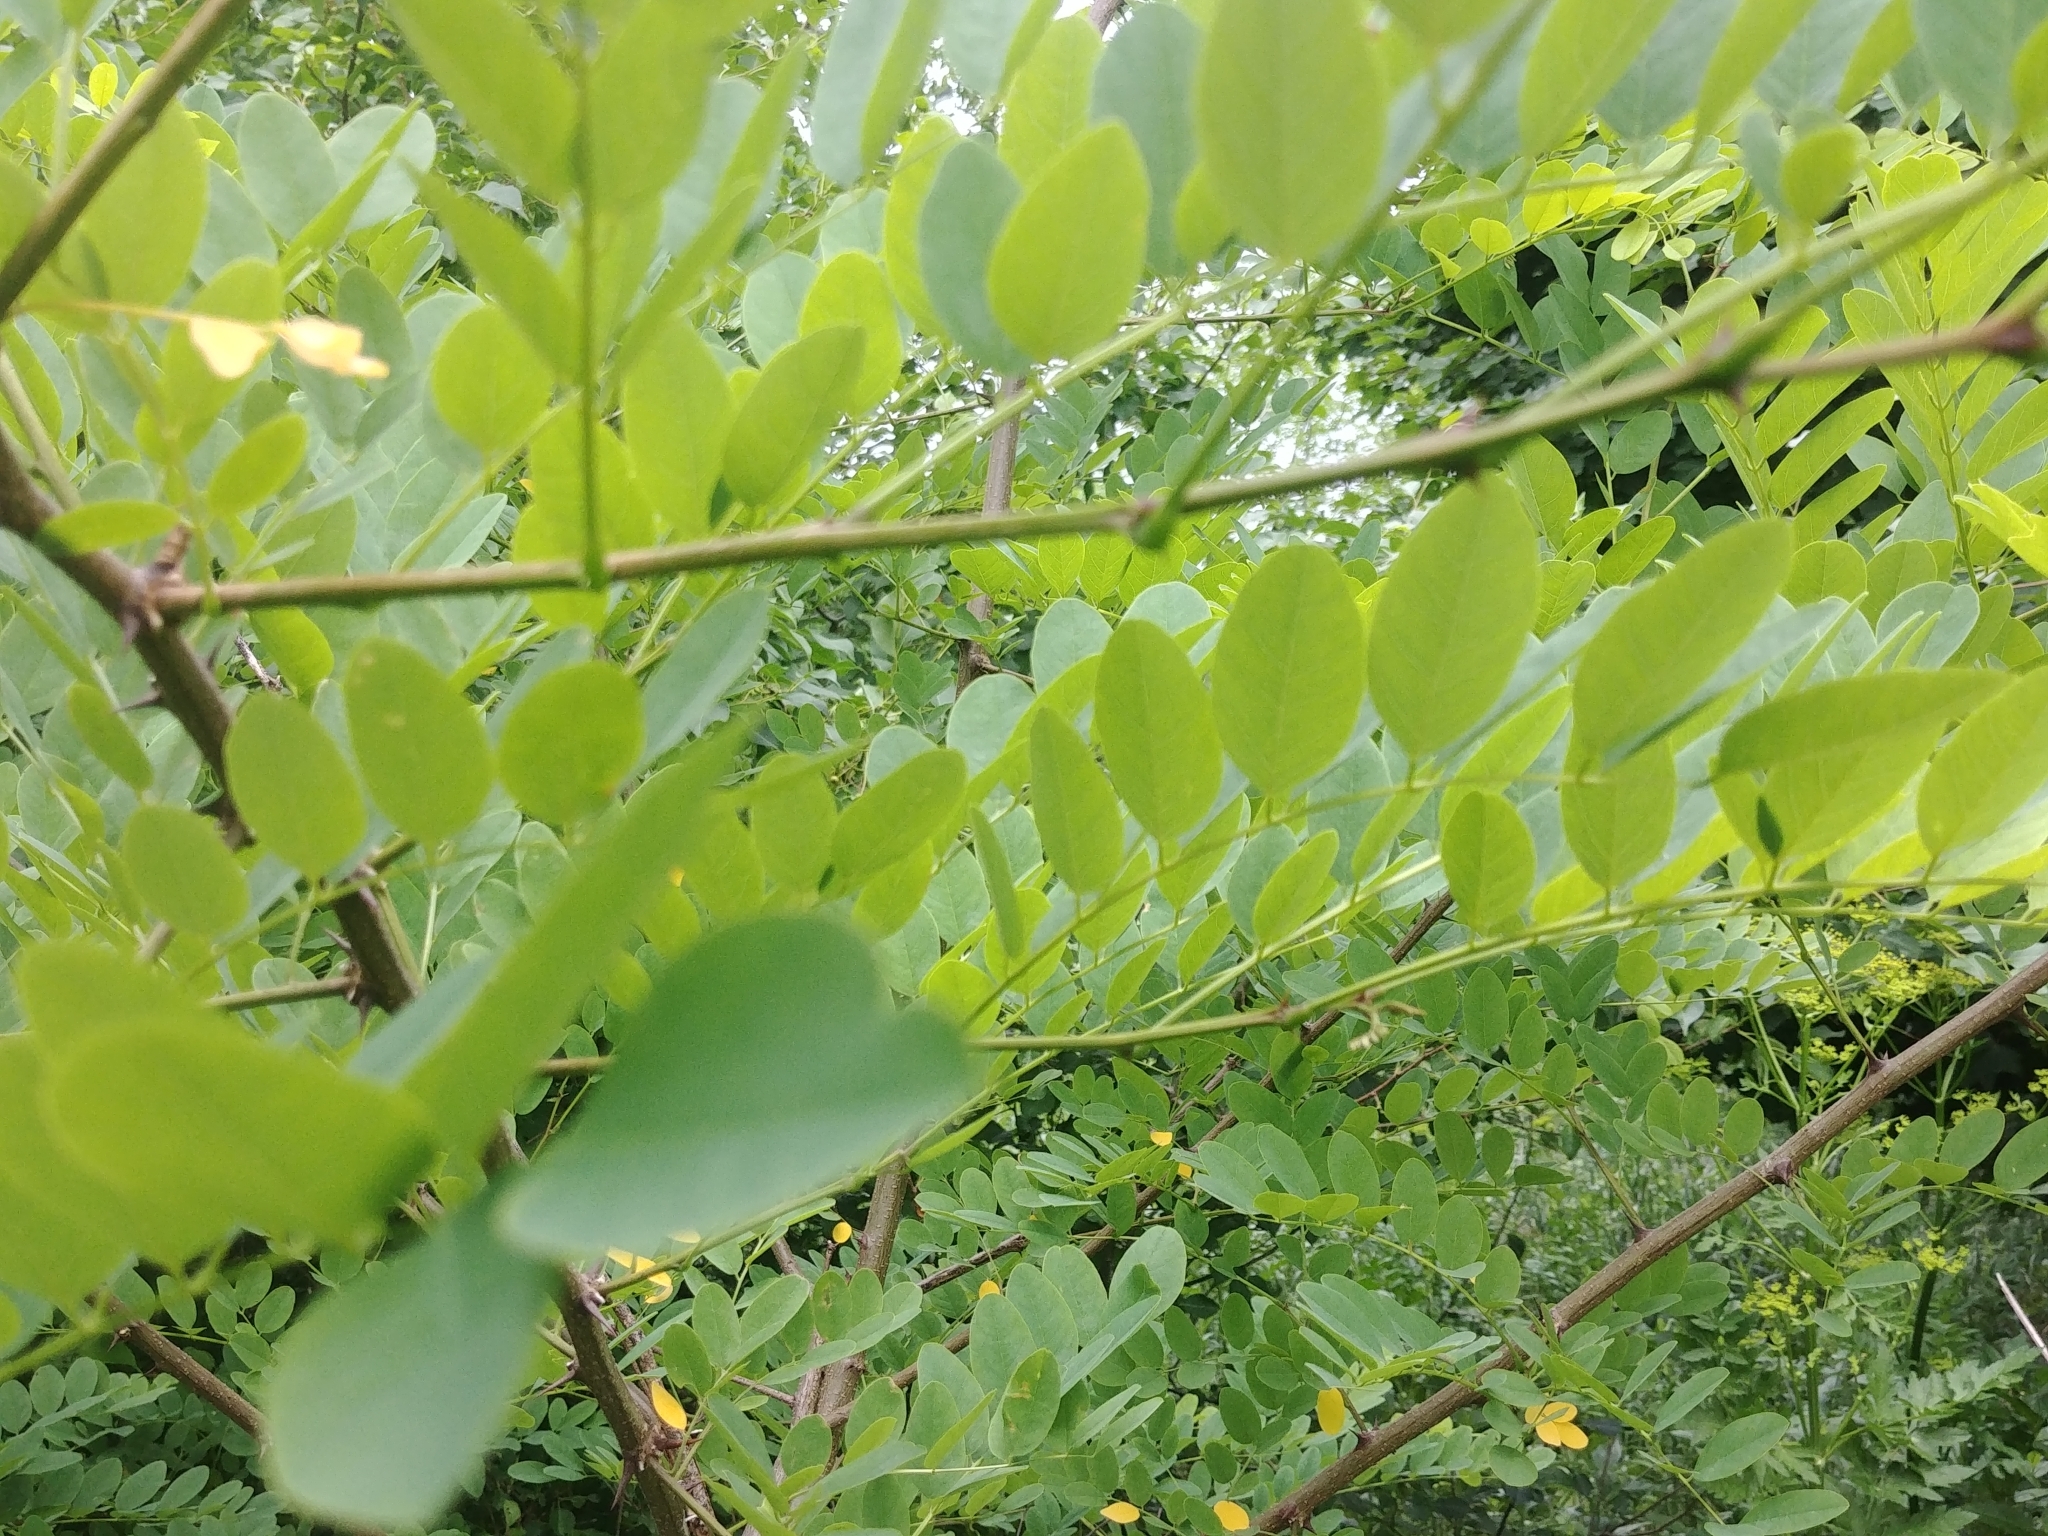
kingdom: Plantae
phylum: Tracheophyta
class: Magnoliopsida
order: Fabales
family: Fabaceae
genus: Robinia
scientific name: Robinia pseudoacacia
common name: Black locust
